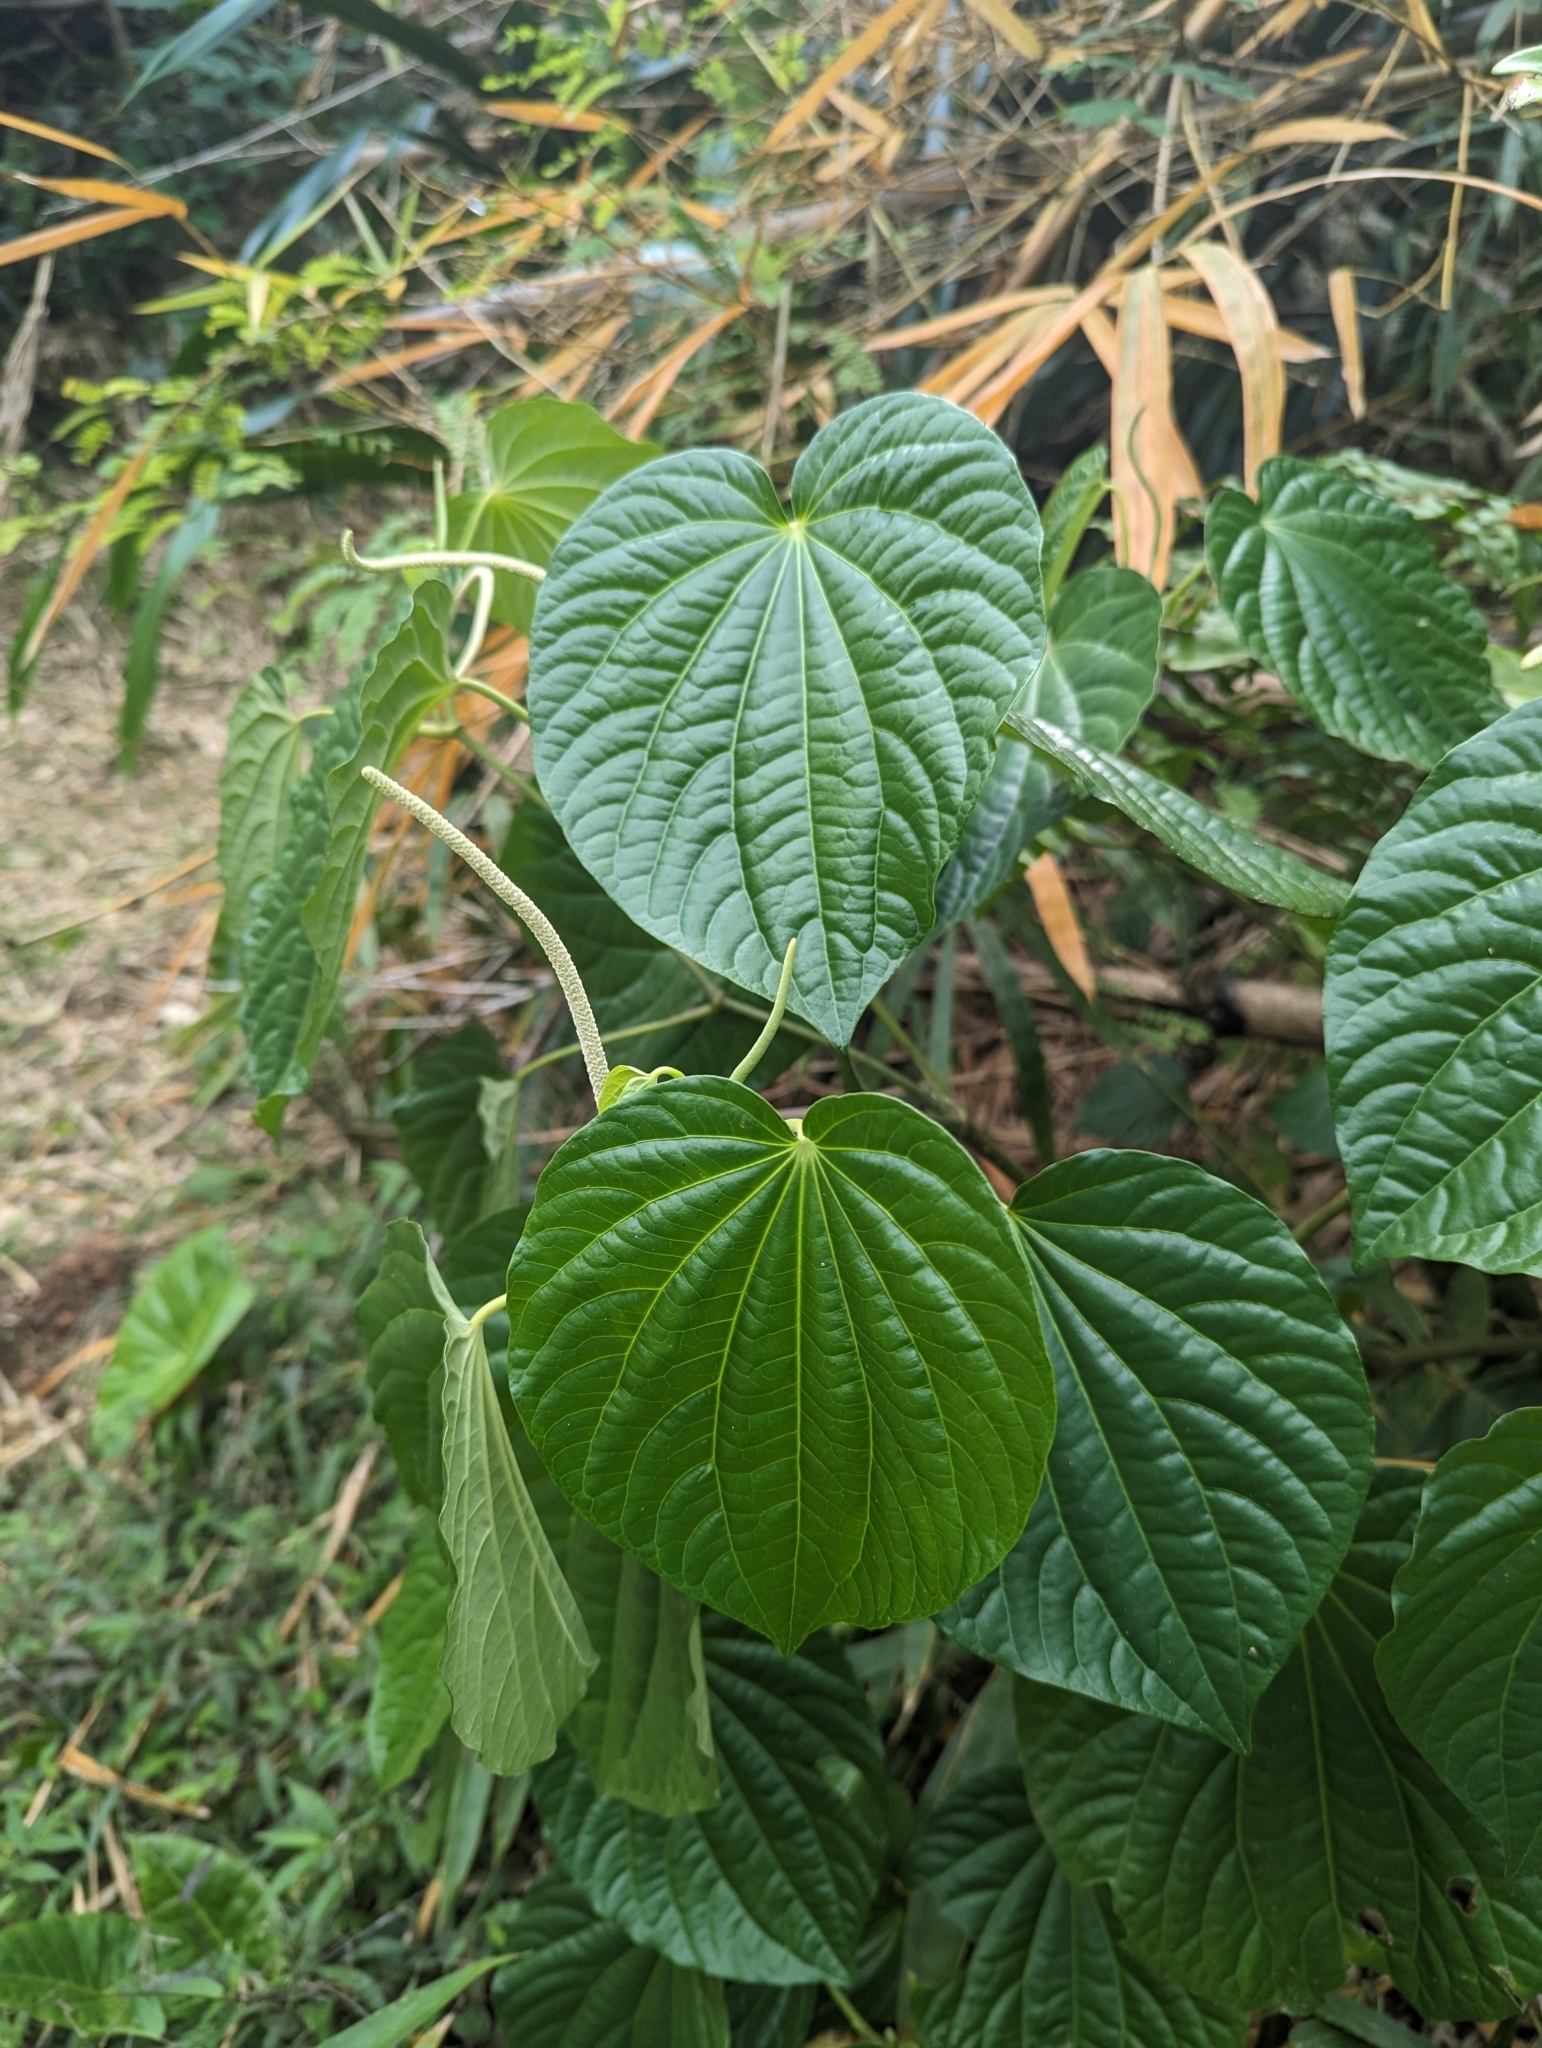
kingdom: Plantae
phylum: Tracheophyta
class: Magnoliopsida
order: Piperales
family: Piperaceae
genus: Macropiper
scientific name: Macropiper guahamense
